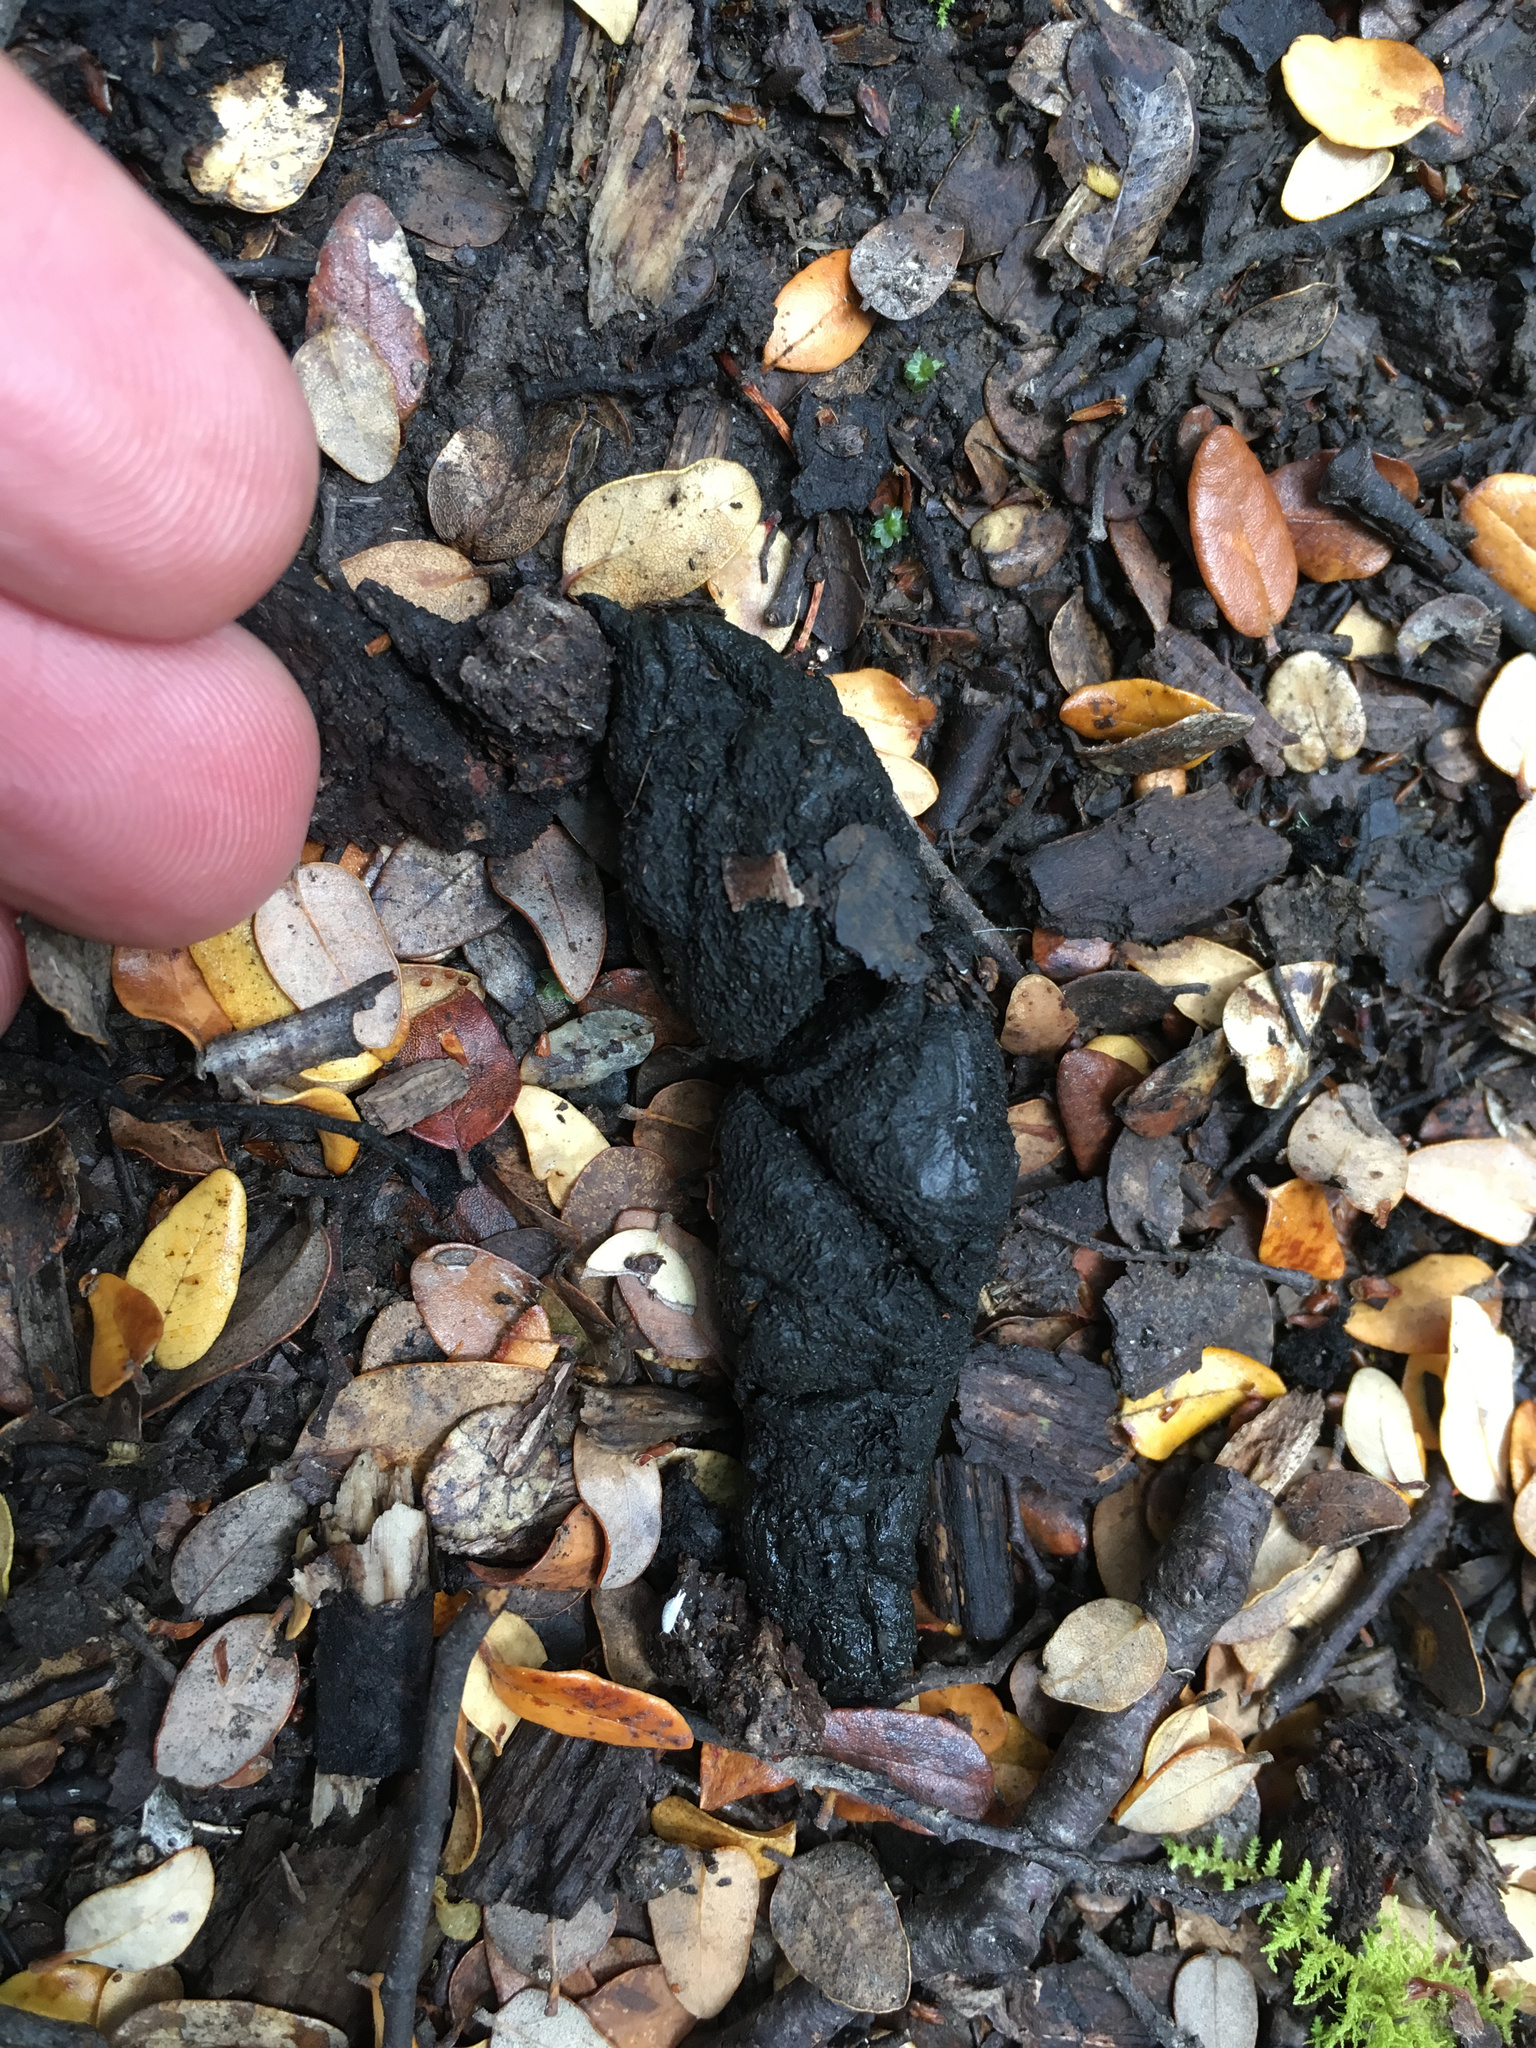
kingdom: Animalia
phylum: Chordata
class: Mammalia
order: Diprotodontia
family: Phalangeridae
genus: Trichosurus
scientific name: Trichosurus vulpecula
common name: Common brushtail
